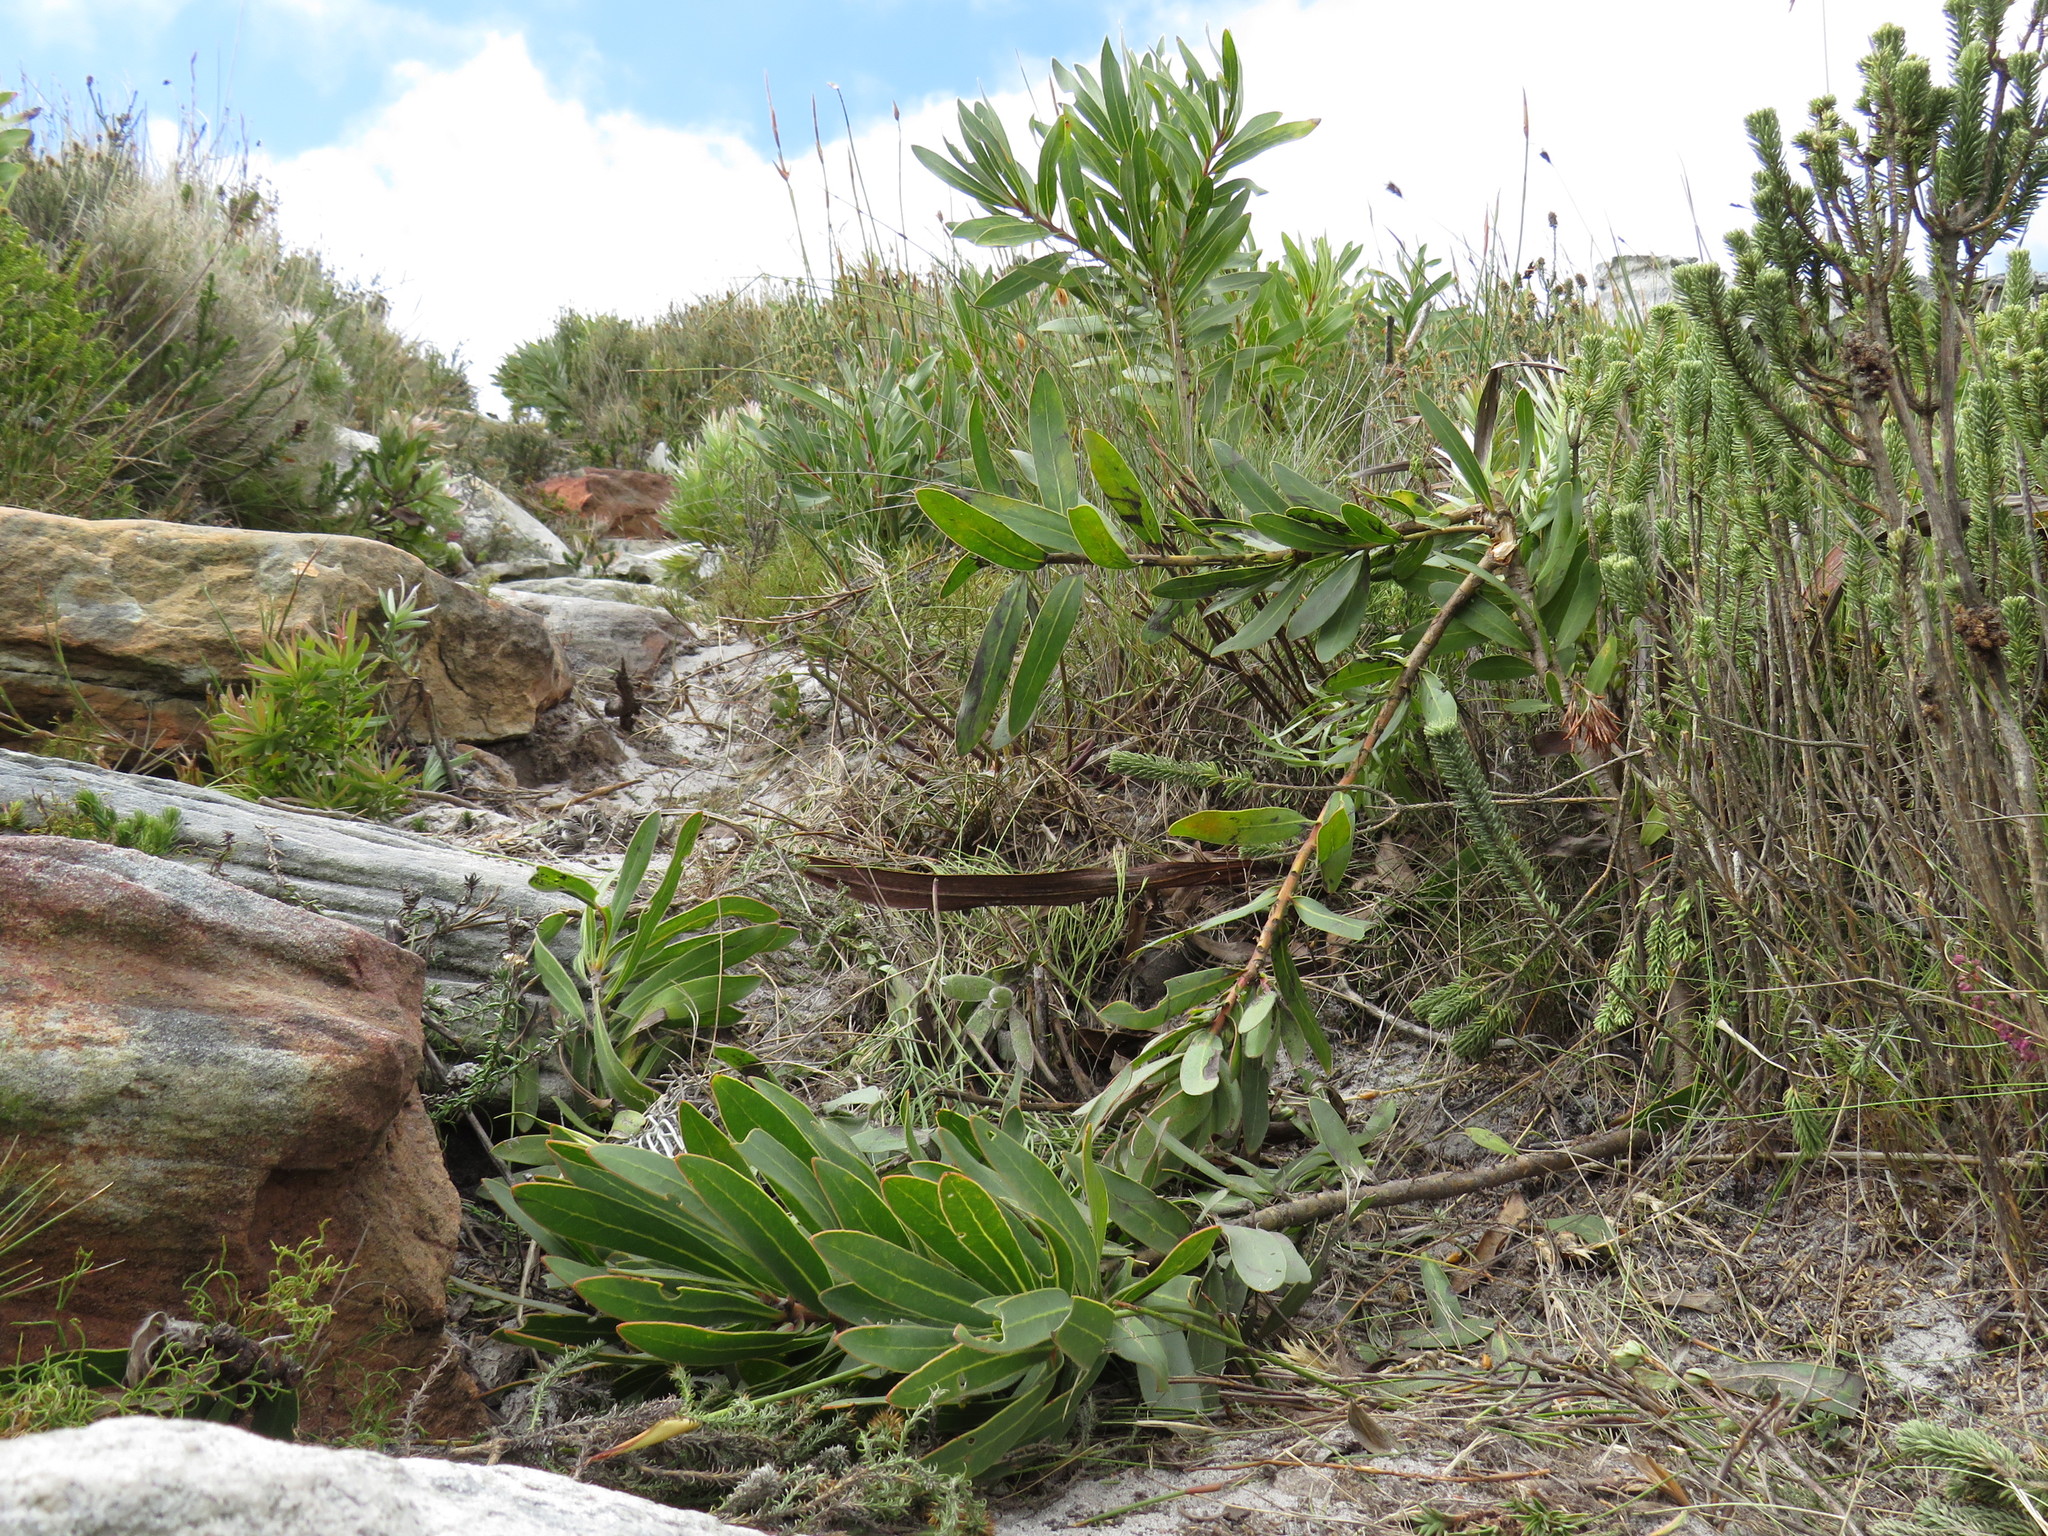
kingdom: Plantae
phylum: Tracheophyta
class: Magnoliopsida
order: Proteales
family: Proteaceae
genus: Protea
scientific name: Protea lepidocarpodendron
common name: Black-bearded protea
